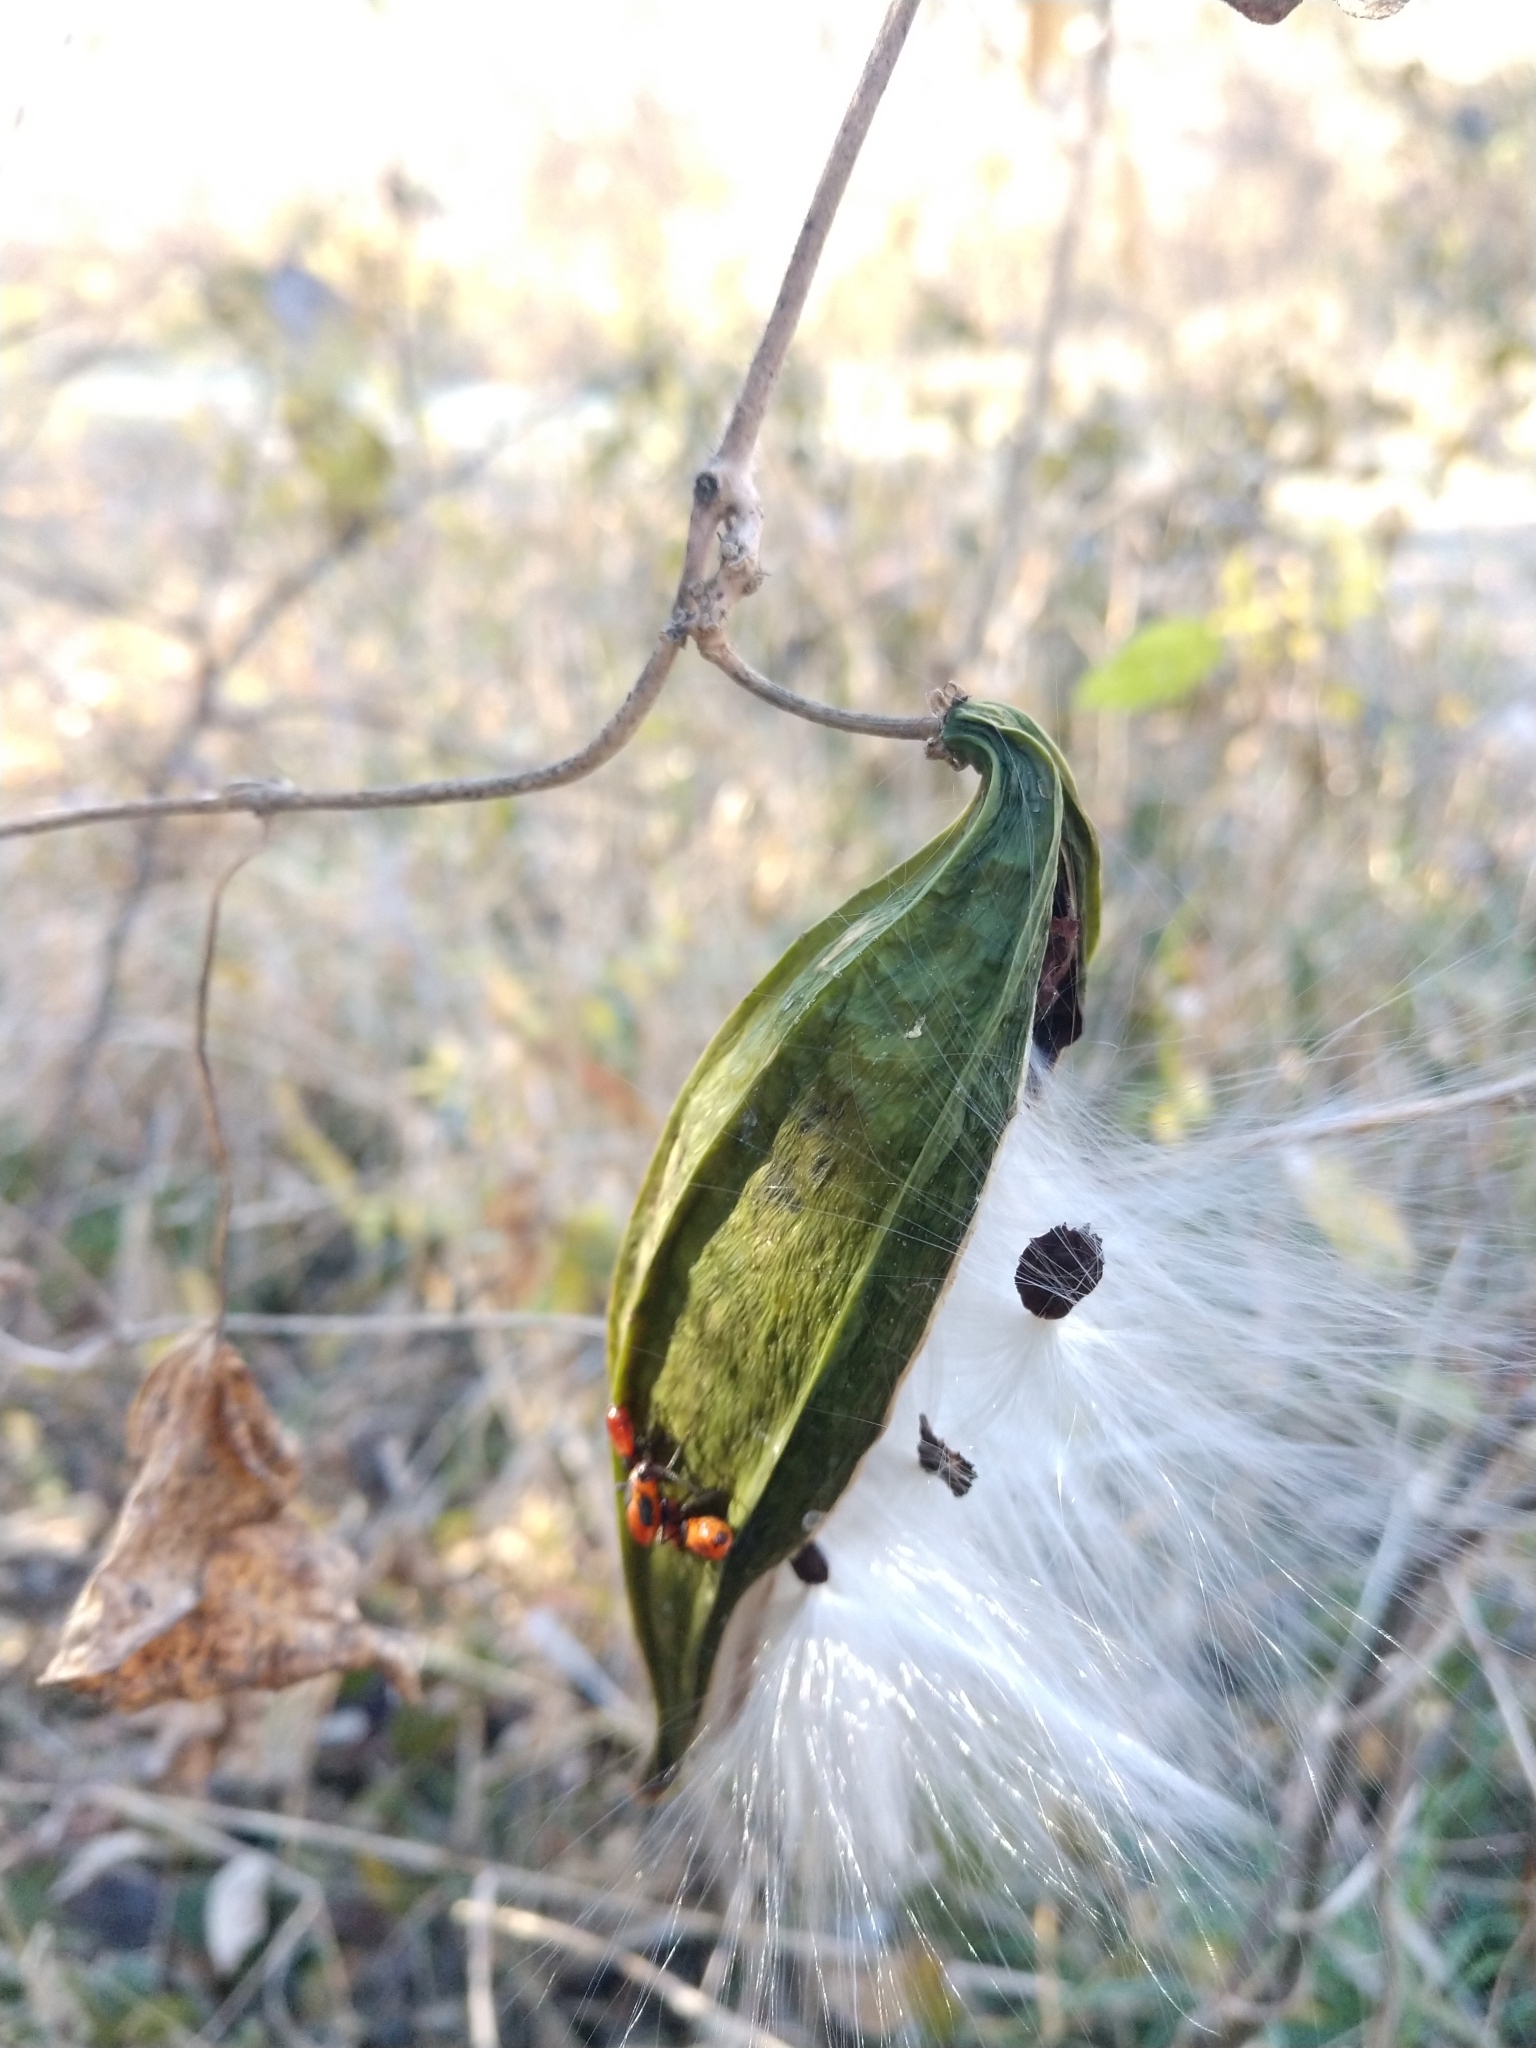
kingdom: Plantae
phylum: Tracheophyta
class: Magnoliopsida
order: Gentianales
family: Apocynaceae
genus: Gonolobus
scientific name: Gonolobus suberosus
